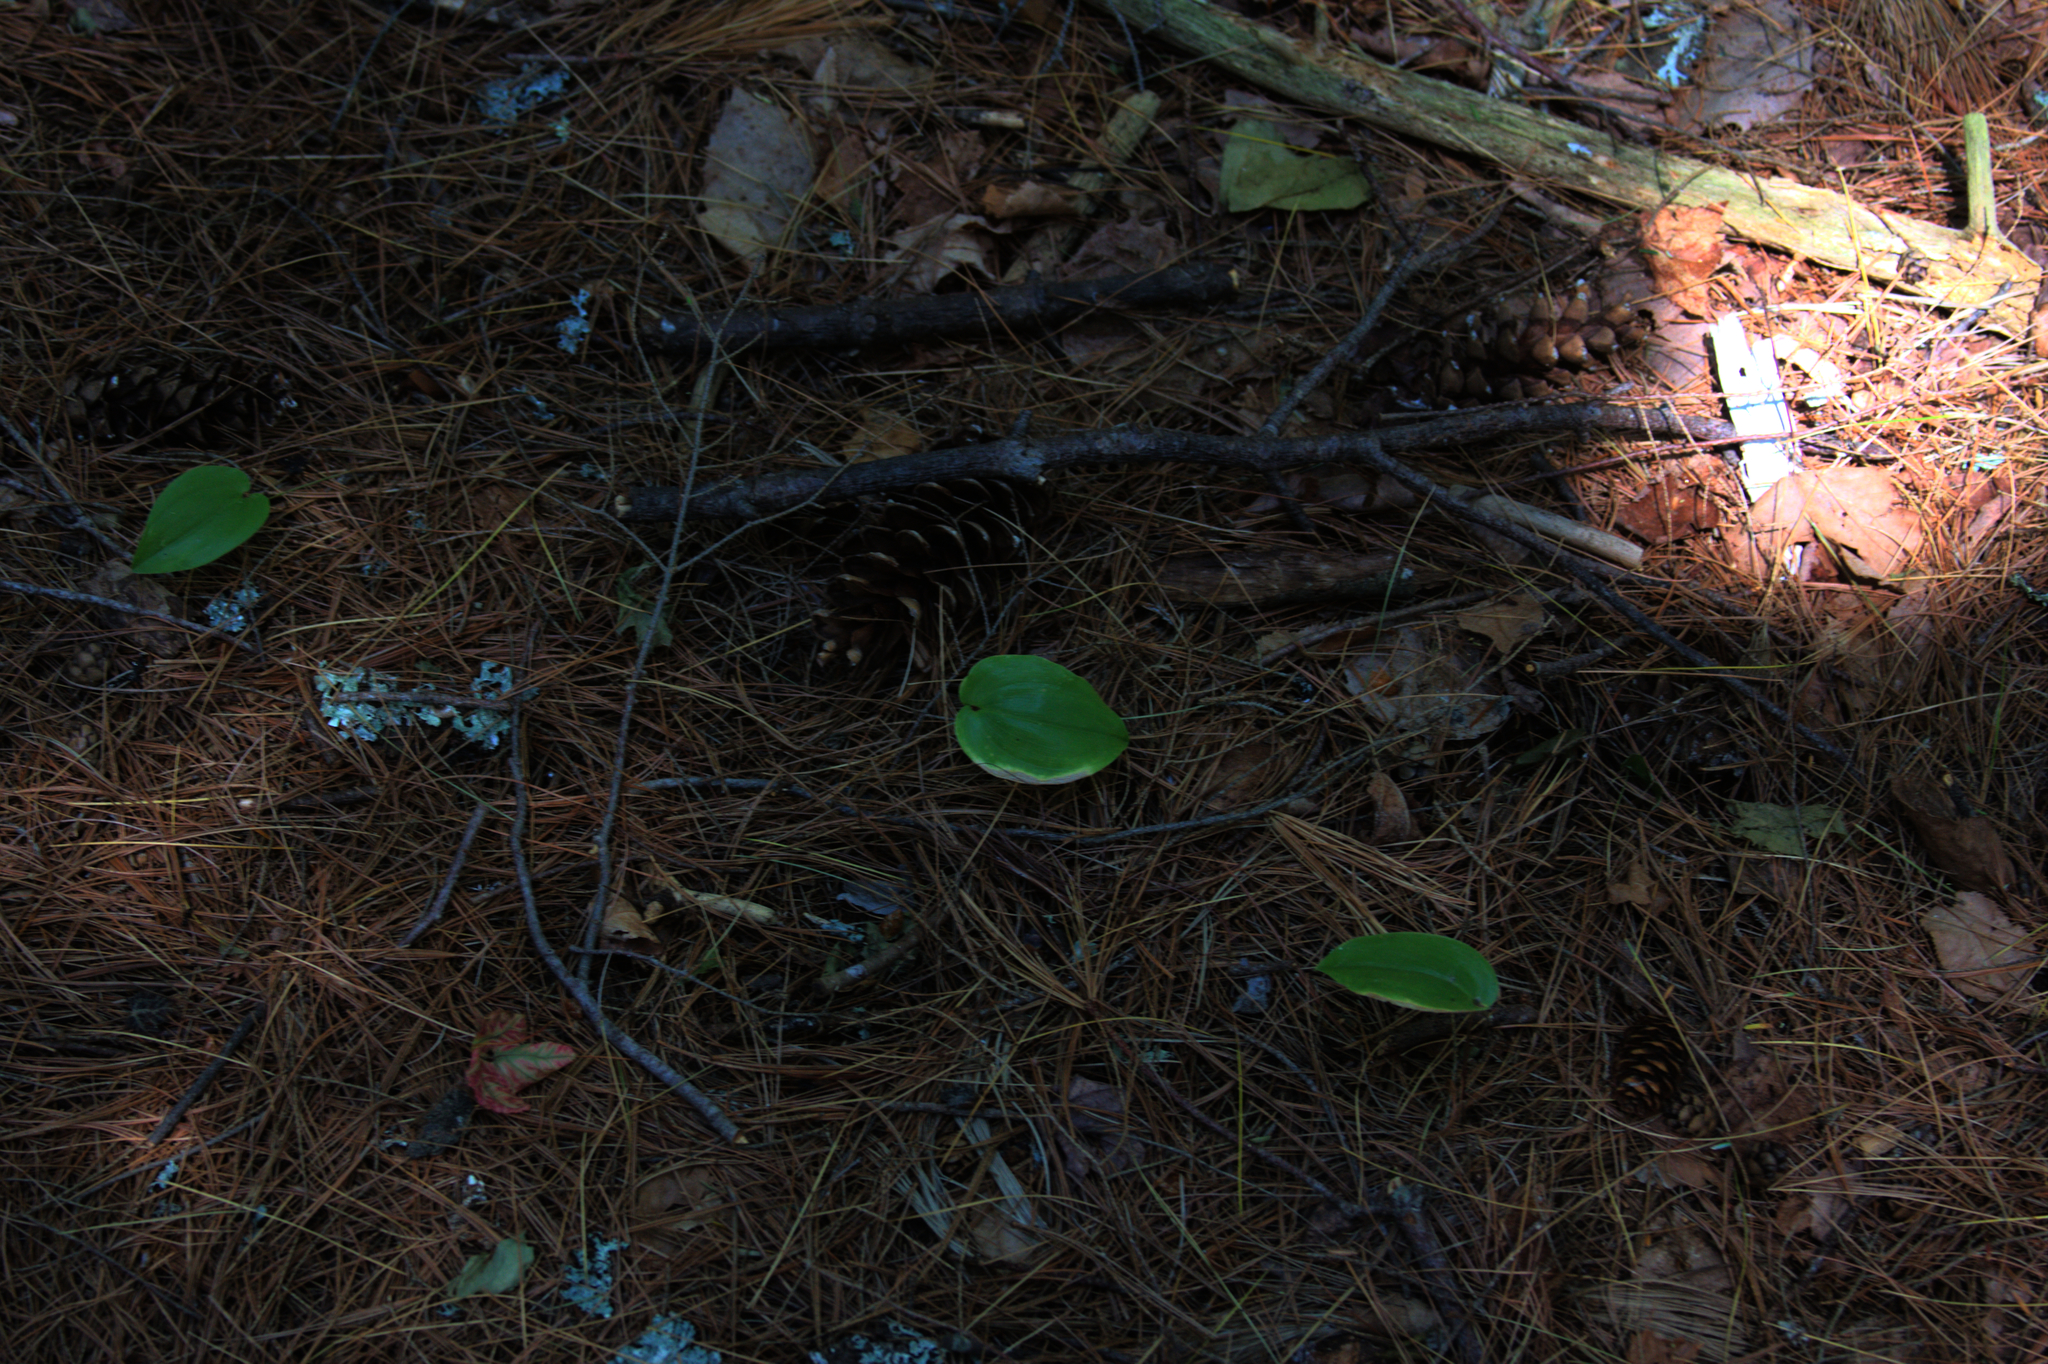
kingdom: Plantae
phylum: Tracheophyta
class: Liliopsida
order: Asparagales
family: Asparagaceae
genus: Maianthemum
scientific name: Maianthemum canadense
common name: False lily-of-the-valley
